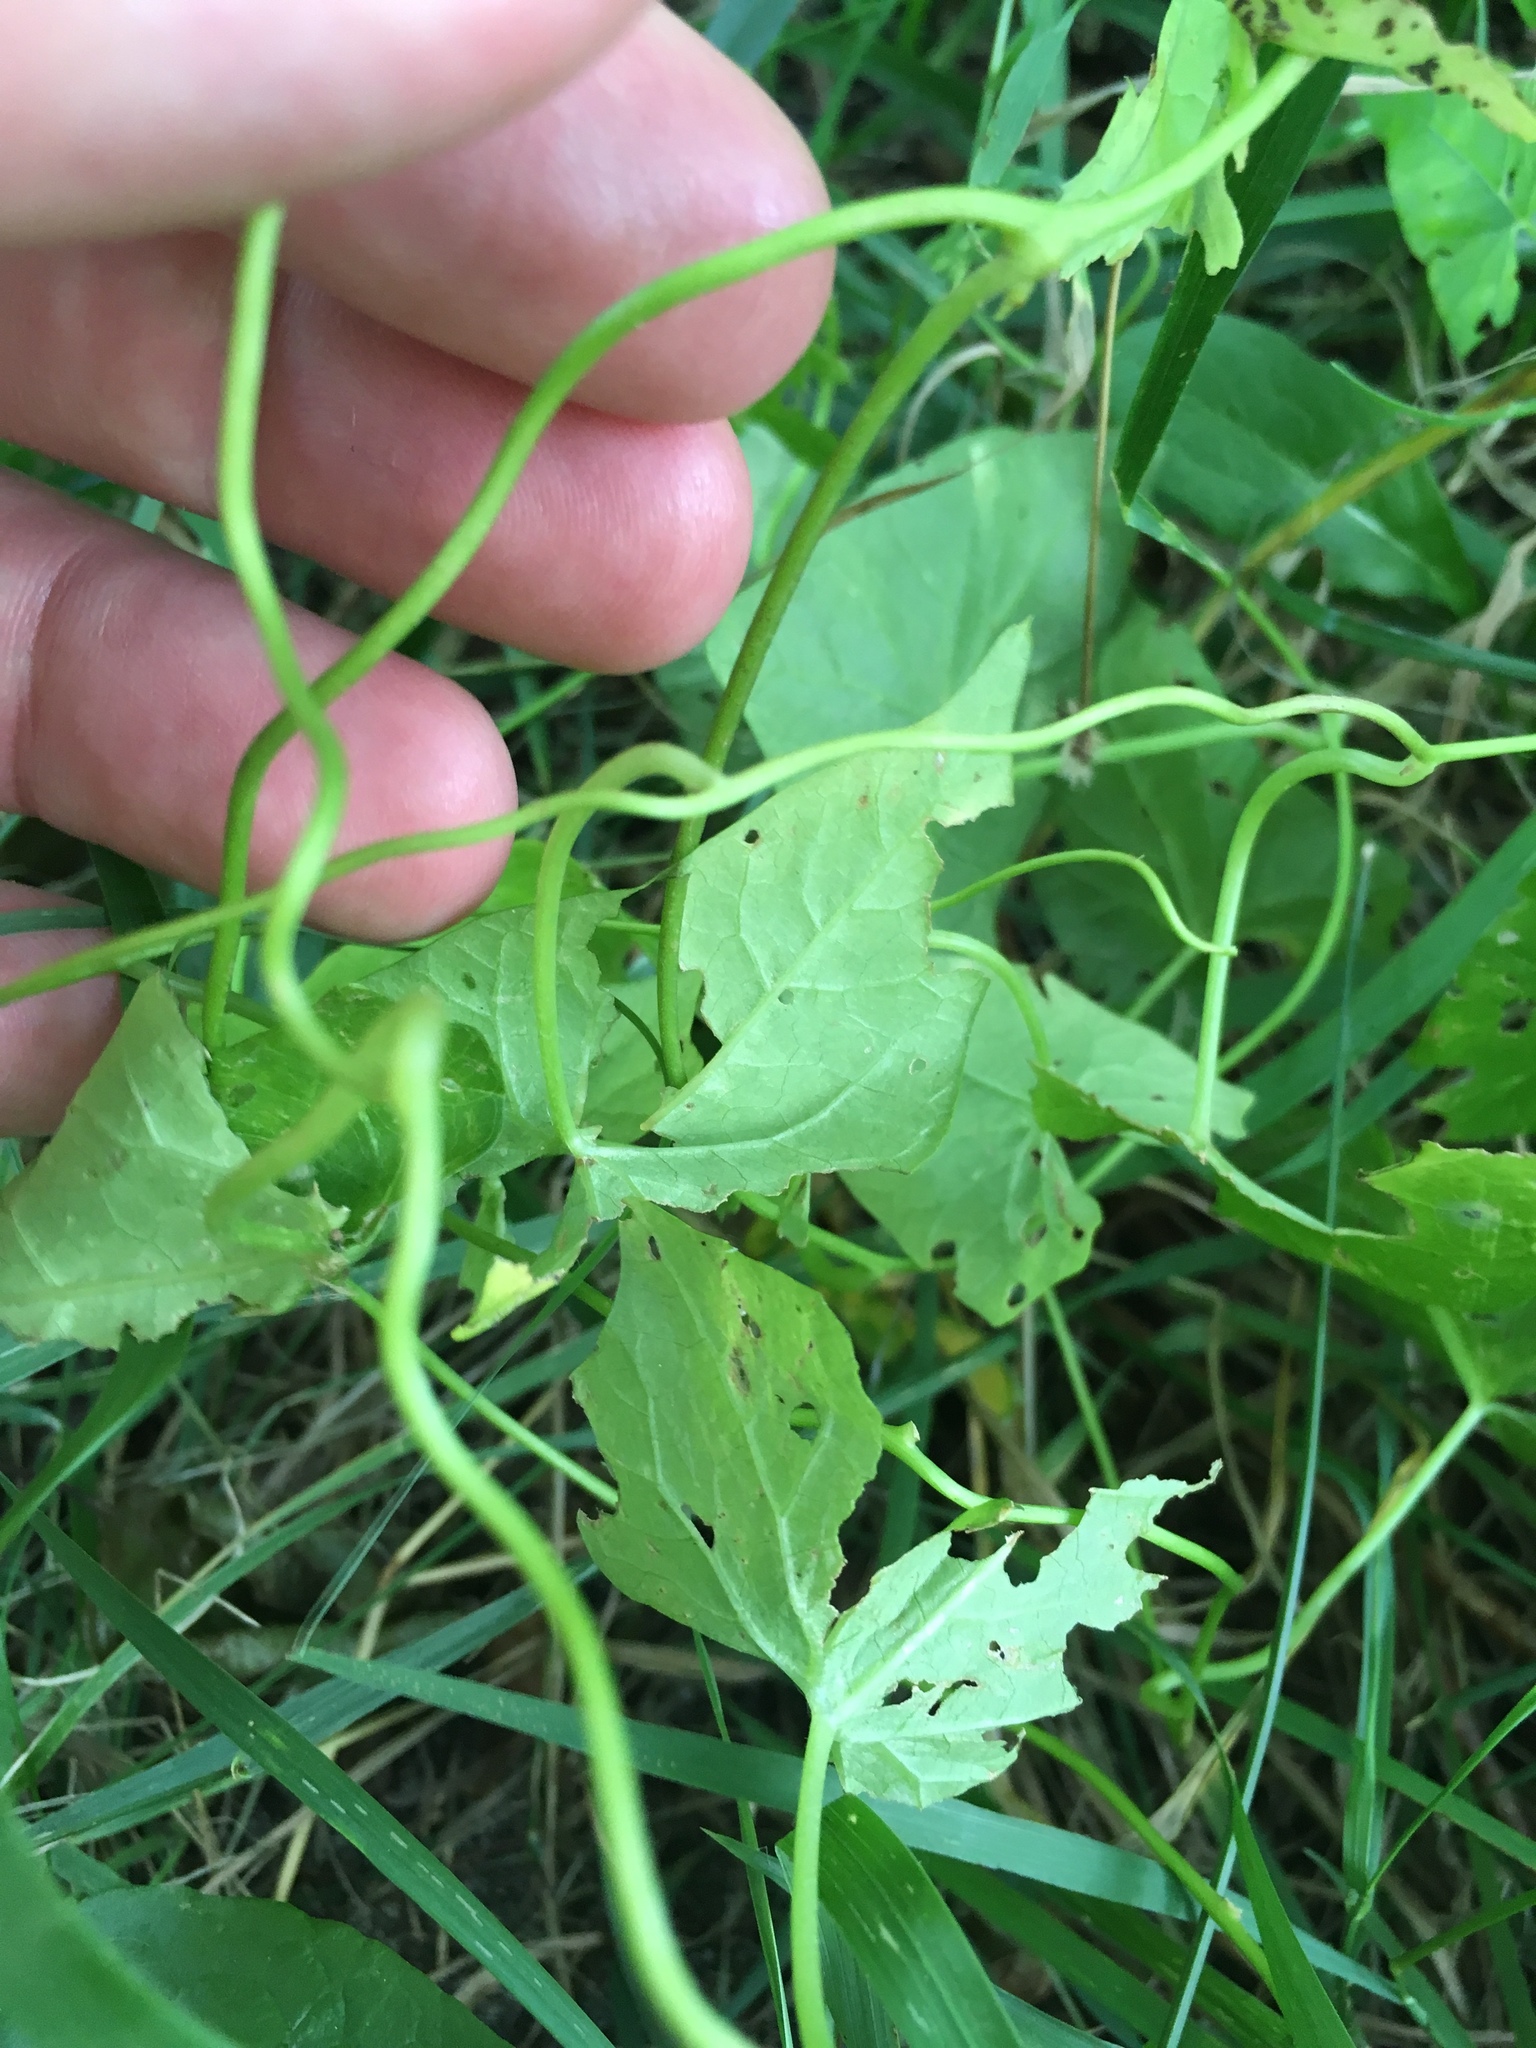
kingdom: Plantae
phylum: Tracheophyta
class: Magnoliopsida
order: Solanales
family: Convolvulaceae
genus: Calystegia
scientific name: Calystegia
